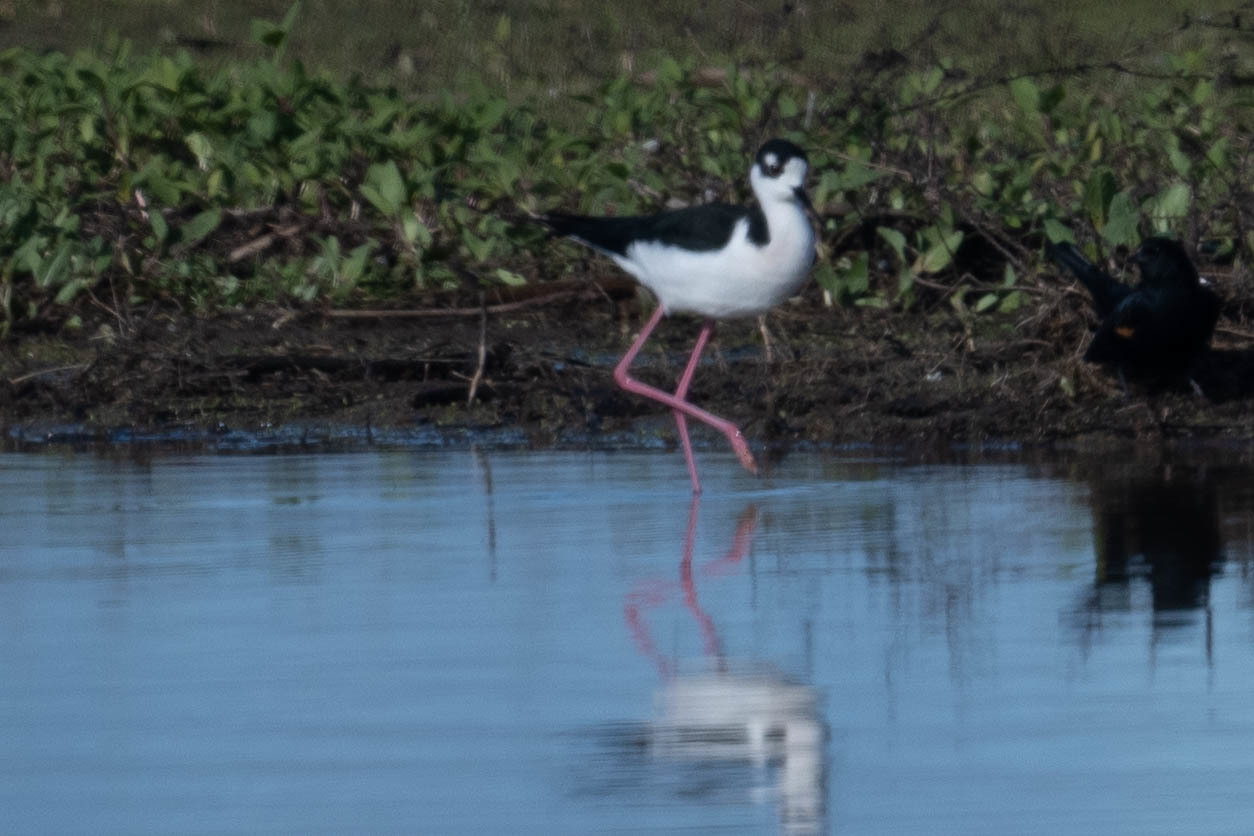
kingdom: Animalia
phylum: Chordata
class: Aves
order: Charadriiformes
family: Recurvirostridae
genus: Himantopus
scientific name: Himantopus mexicanus
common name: Black-necked stilt
